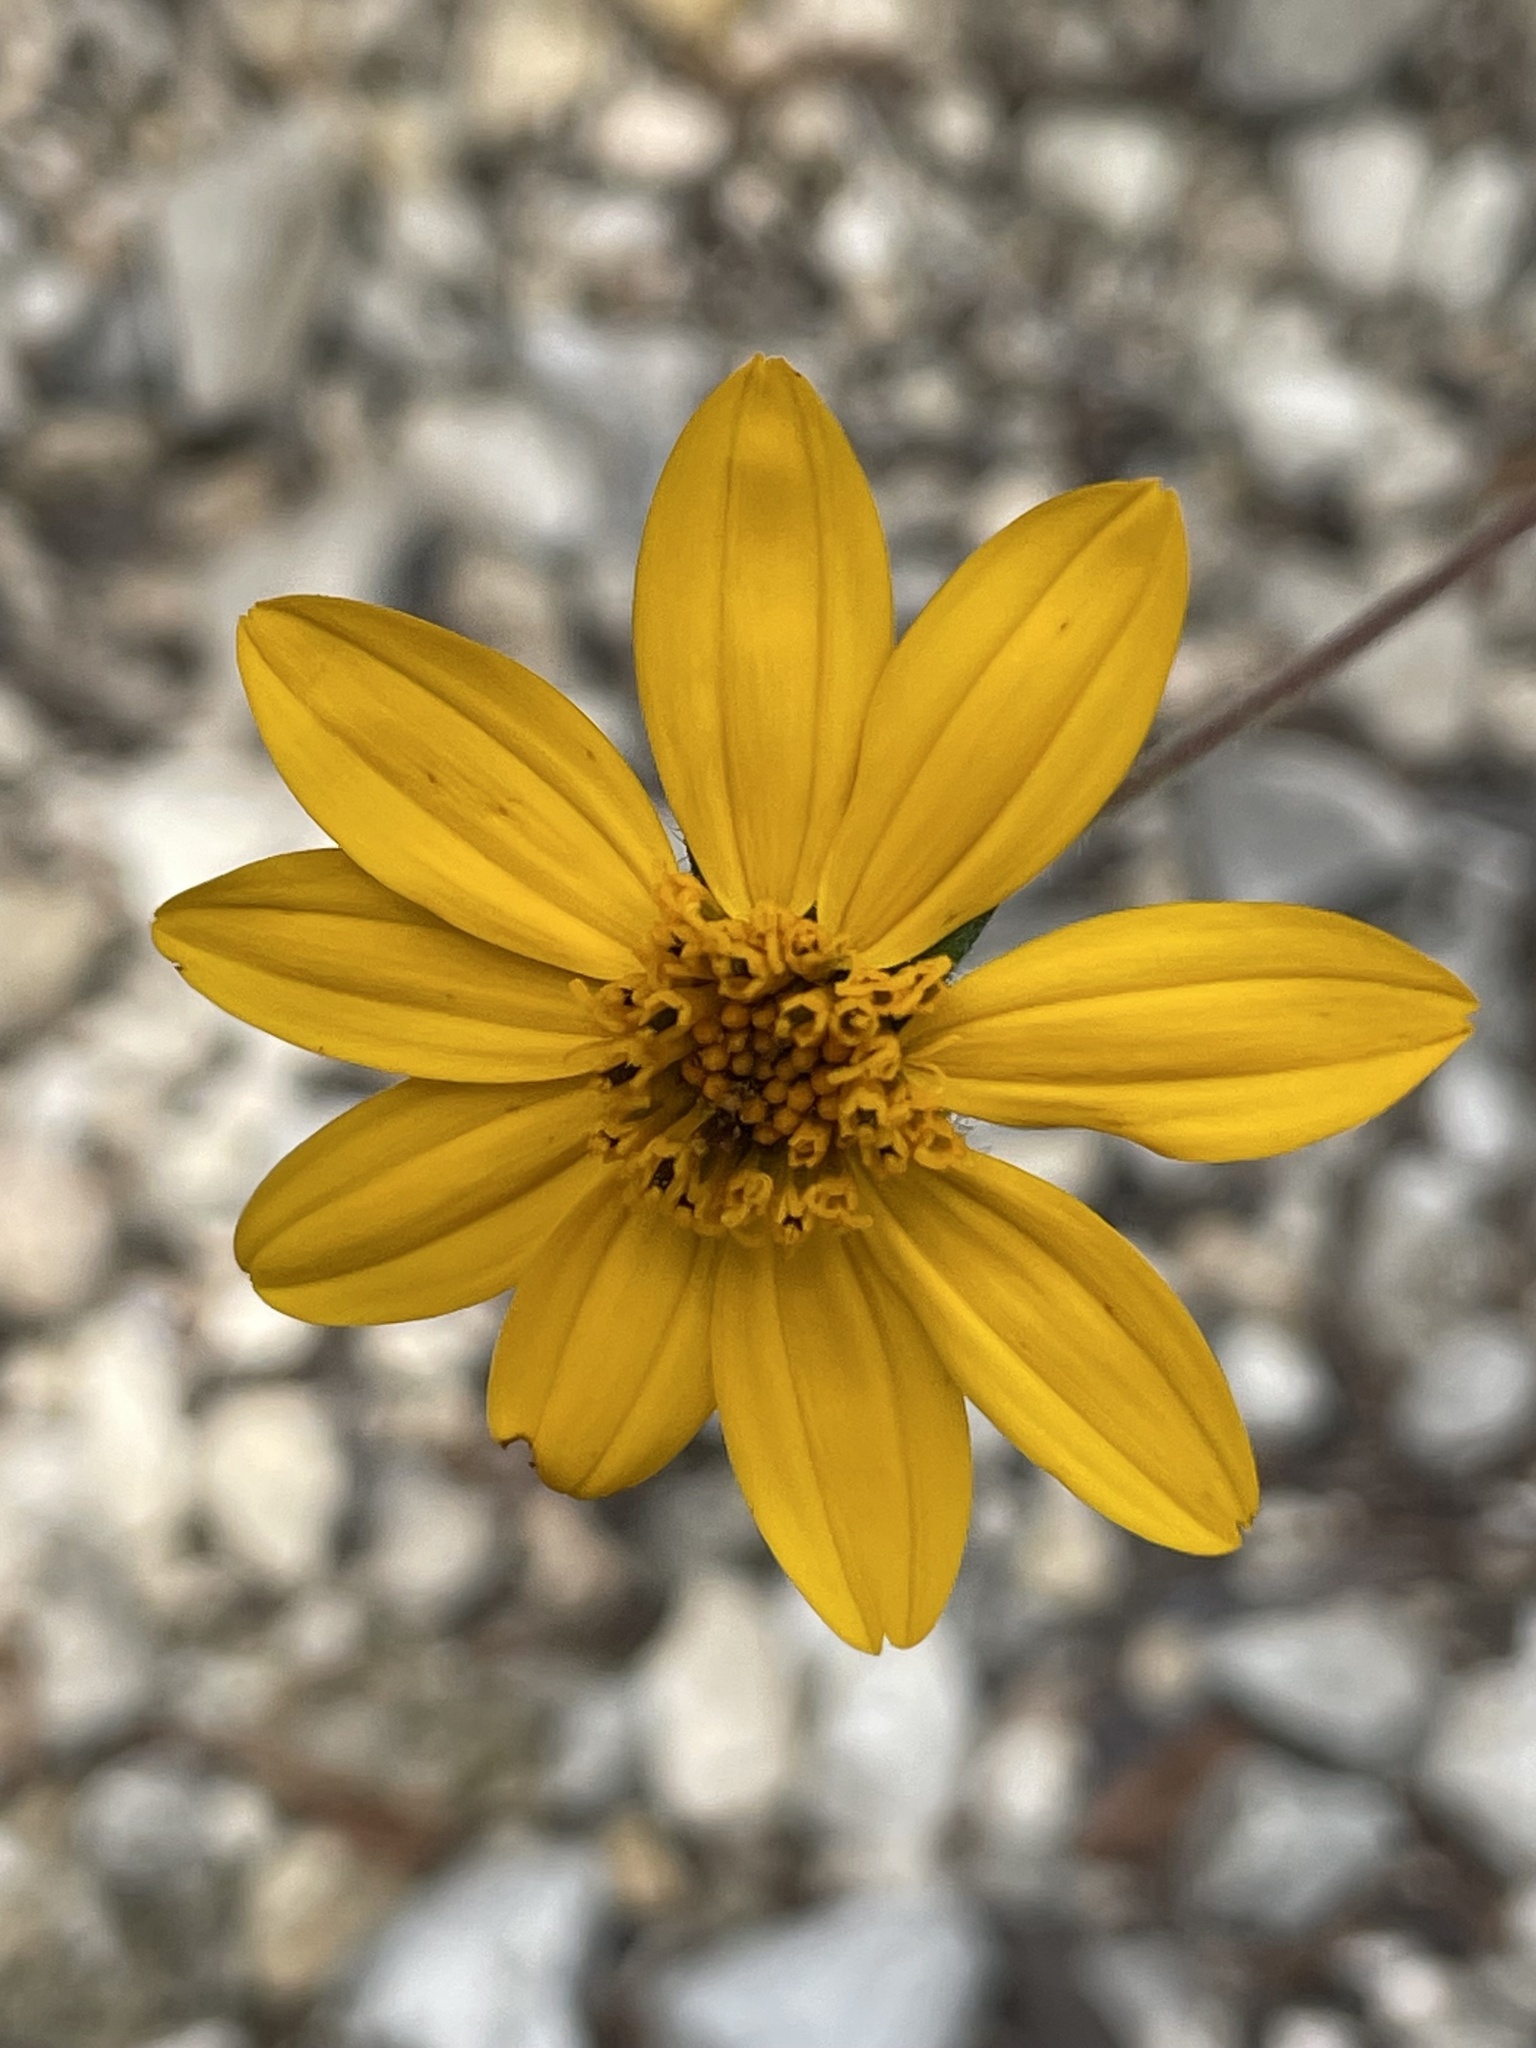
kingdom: Plantae
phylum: Tracheophyta
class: Magnoliopsida
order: Asterales
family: Asteraceae
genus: Wedelia
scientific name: Wedelia acapulcensis
